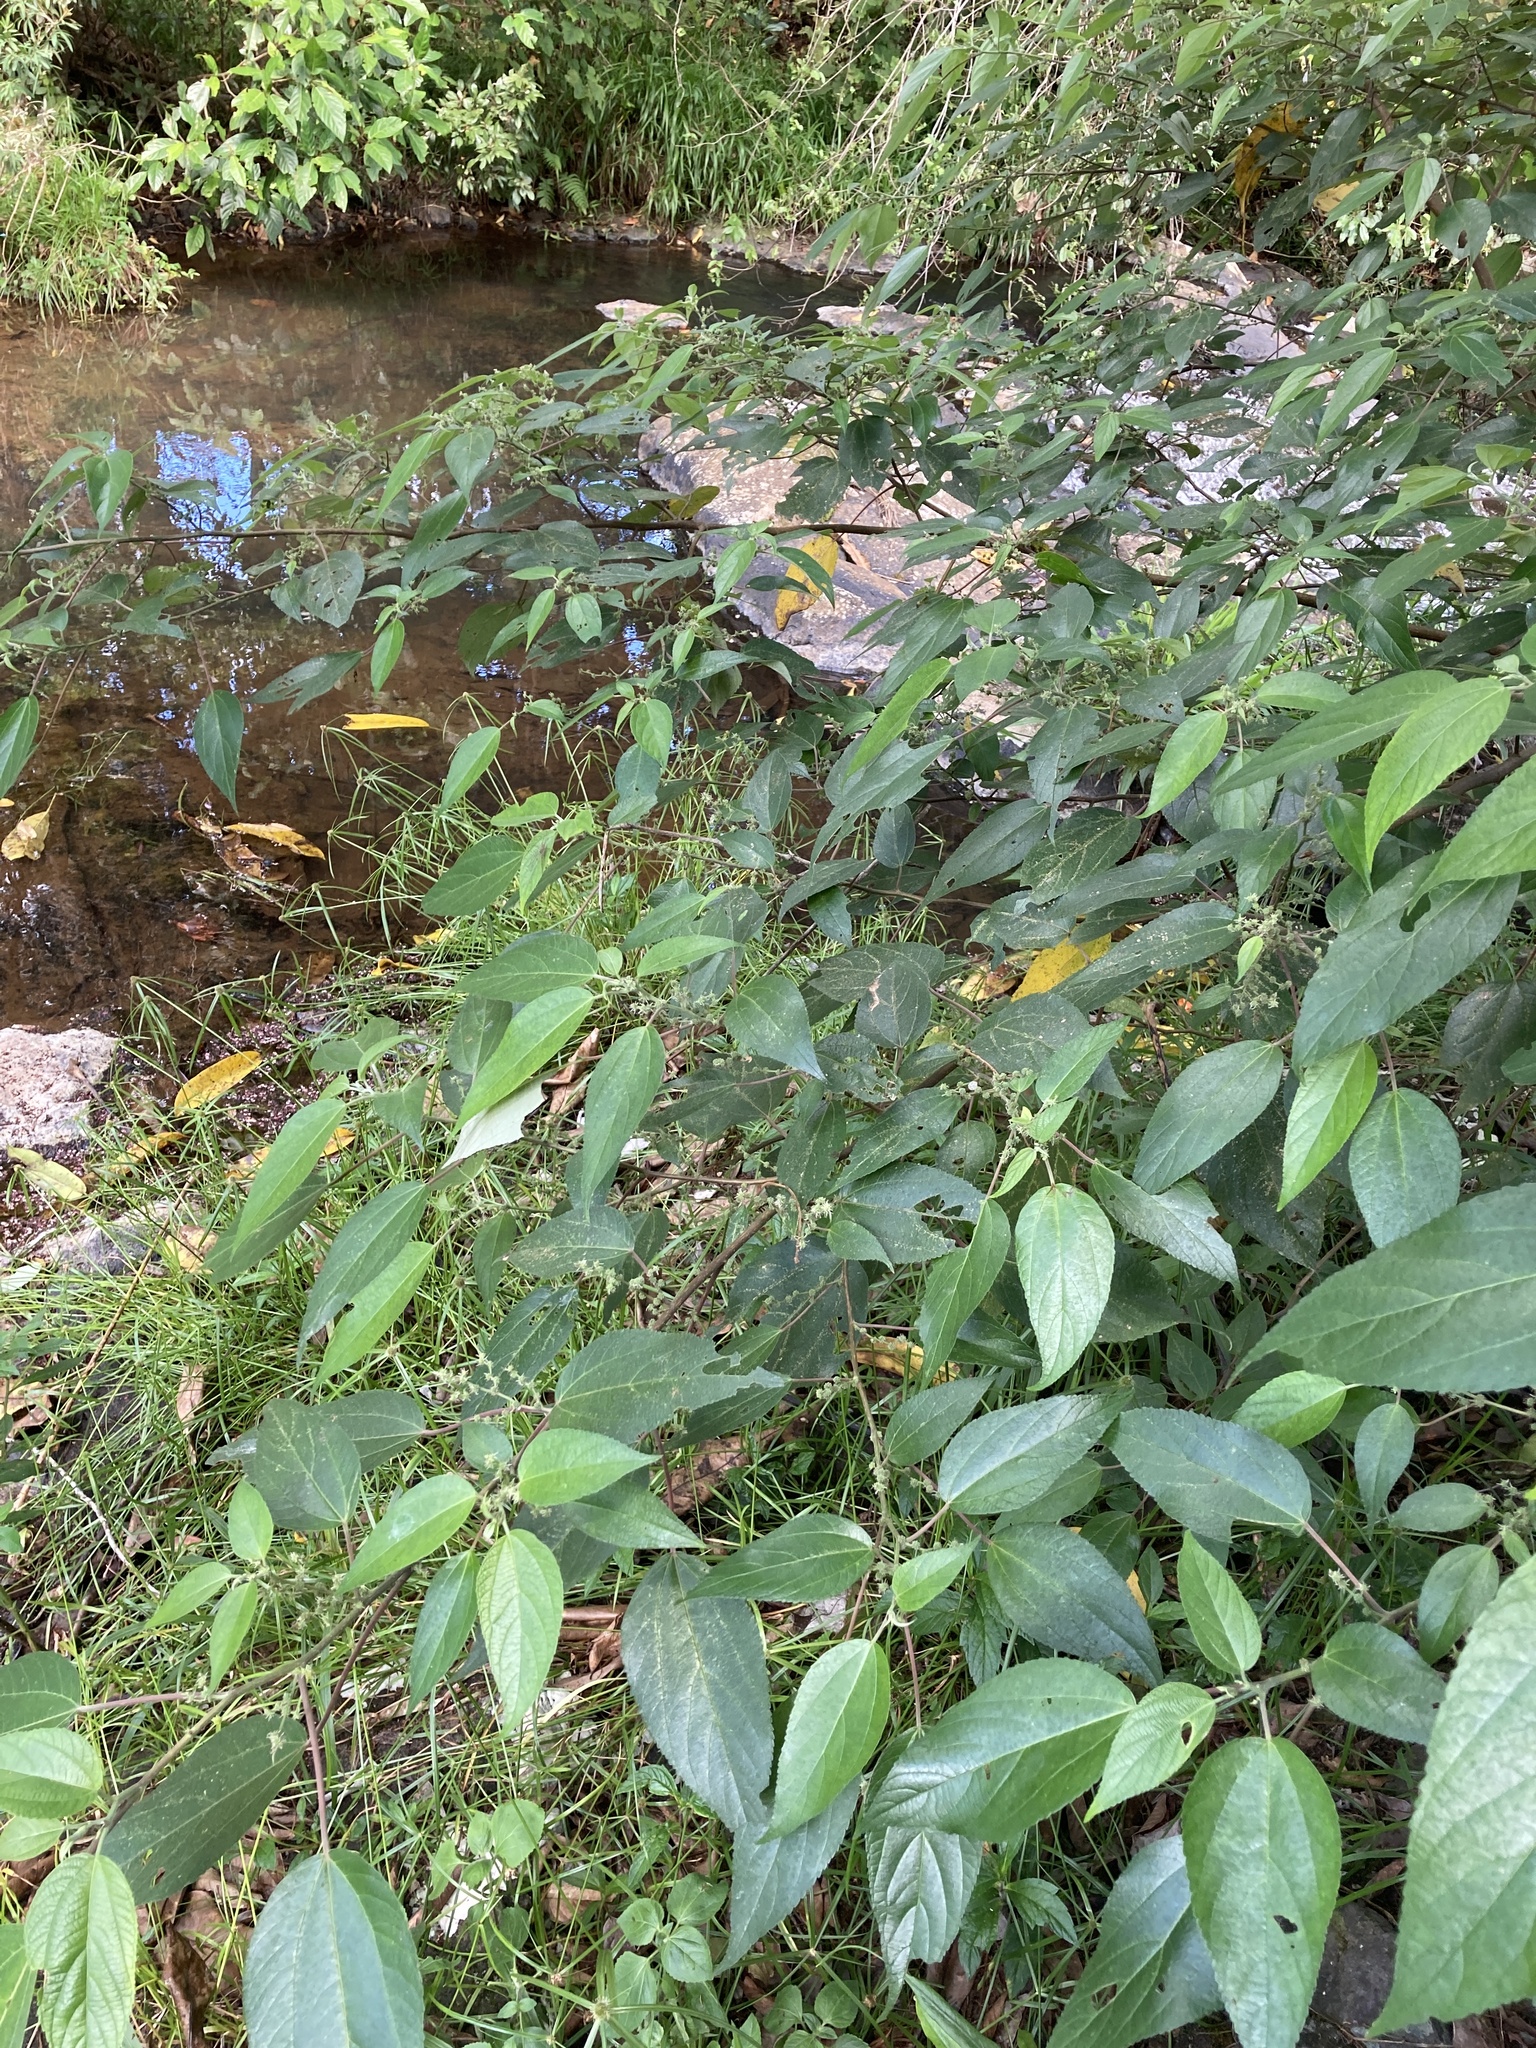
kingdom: Plantae
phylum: Tracheophyta
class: Magnoliopsida
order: Rosales
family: Urticaceae
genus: Pipturus
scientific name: Pipturus argenteus
